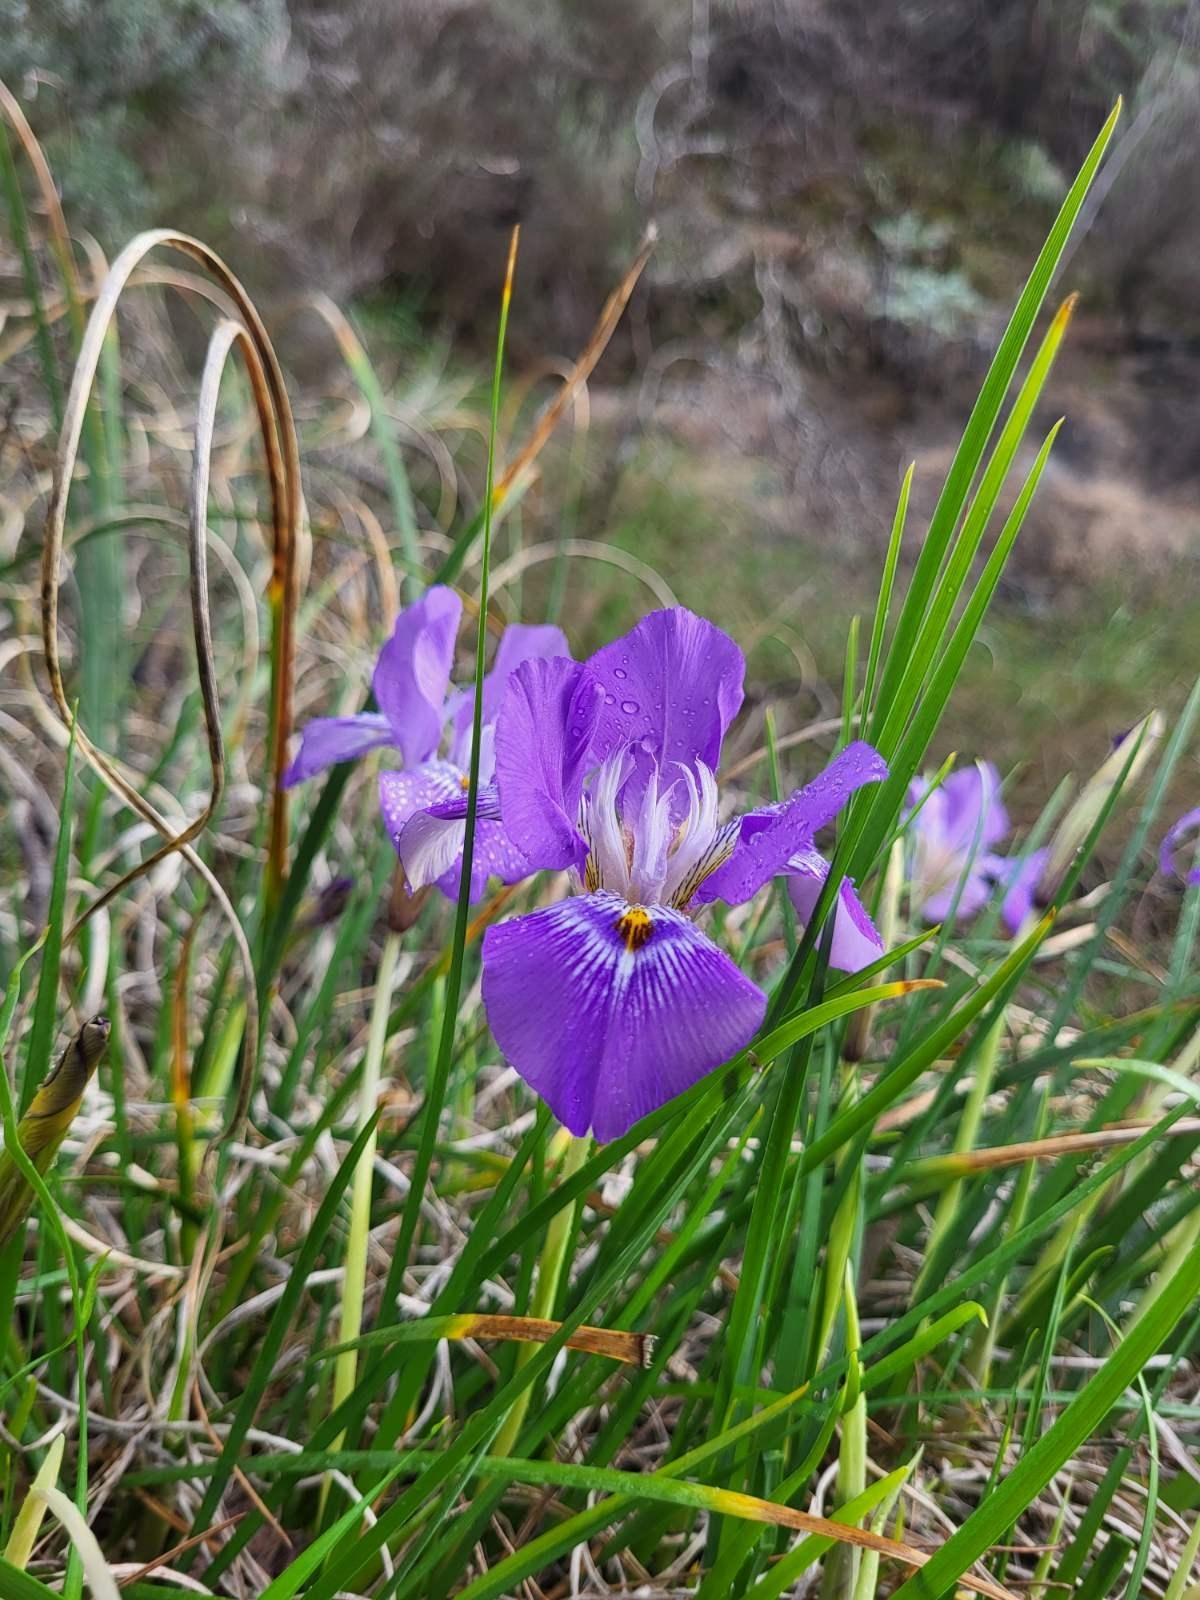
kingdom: Plantae
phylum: Tracheophyta
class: Liliopsida
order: Asparagales
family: Iridaceae
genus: Iris
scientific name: Iris unguicularis
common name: Algerian iris
